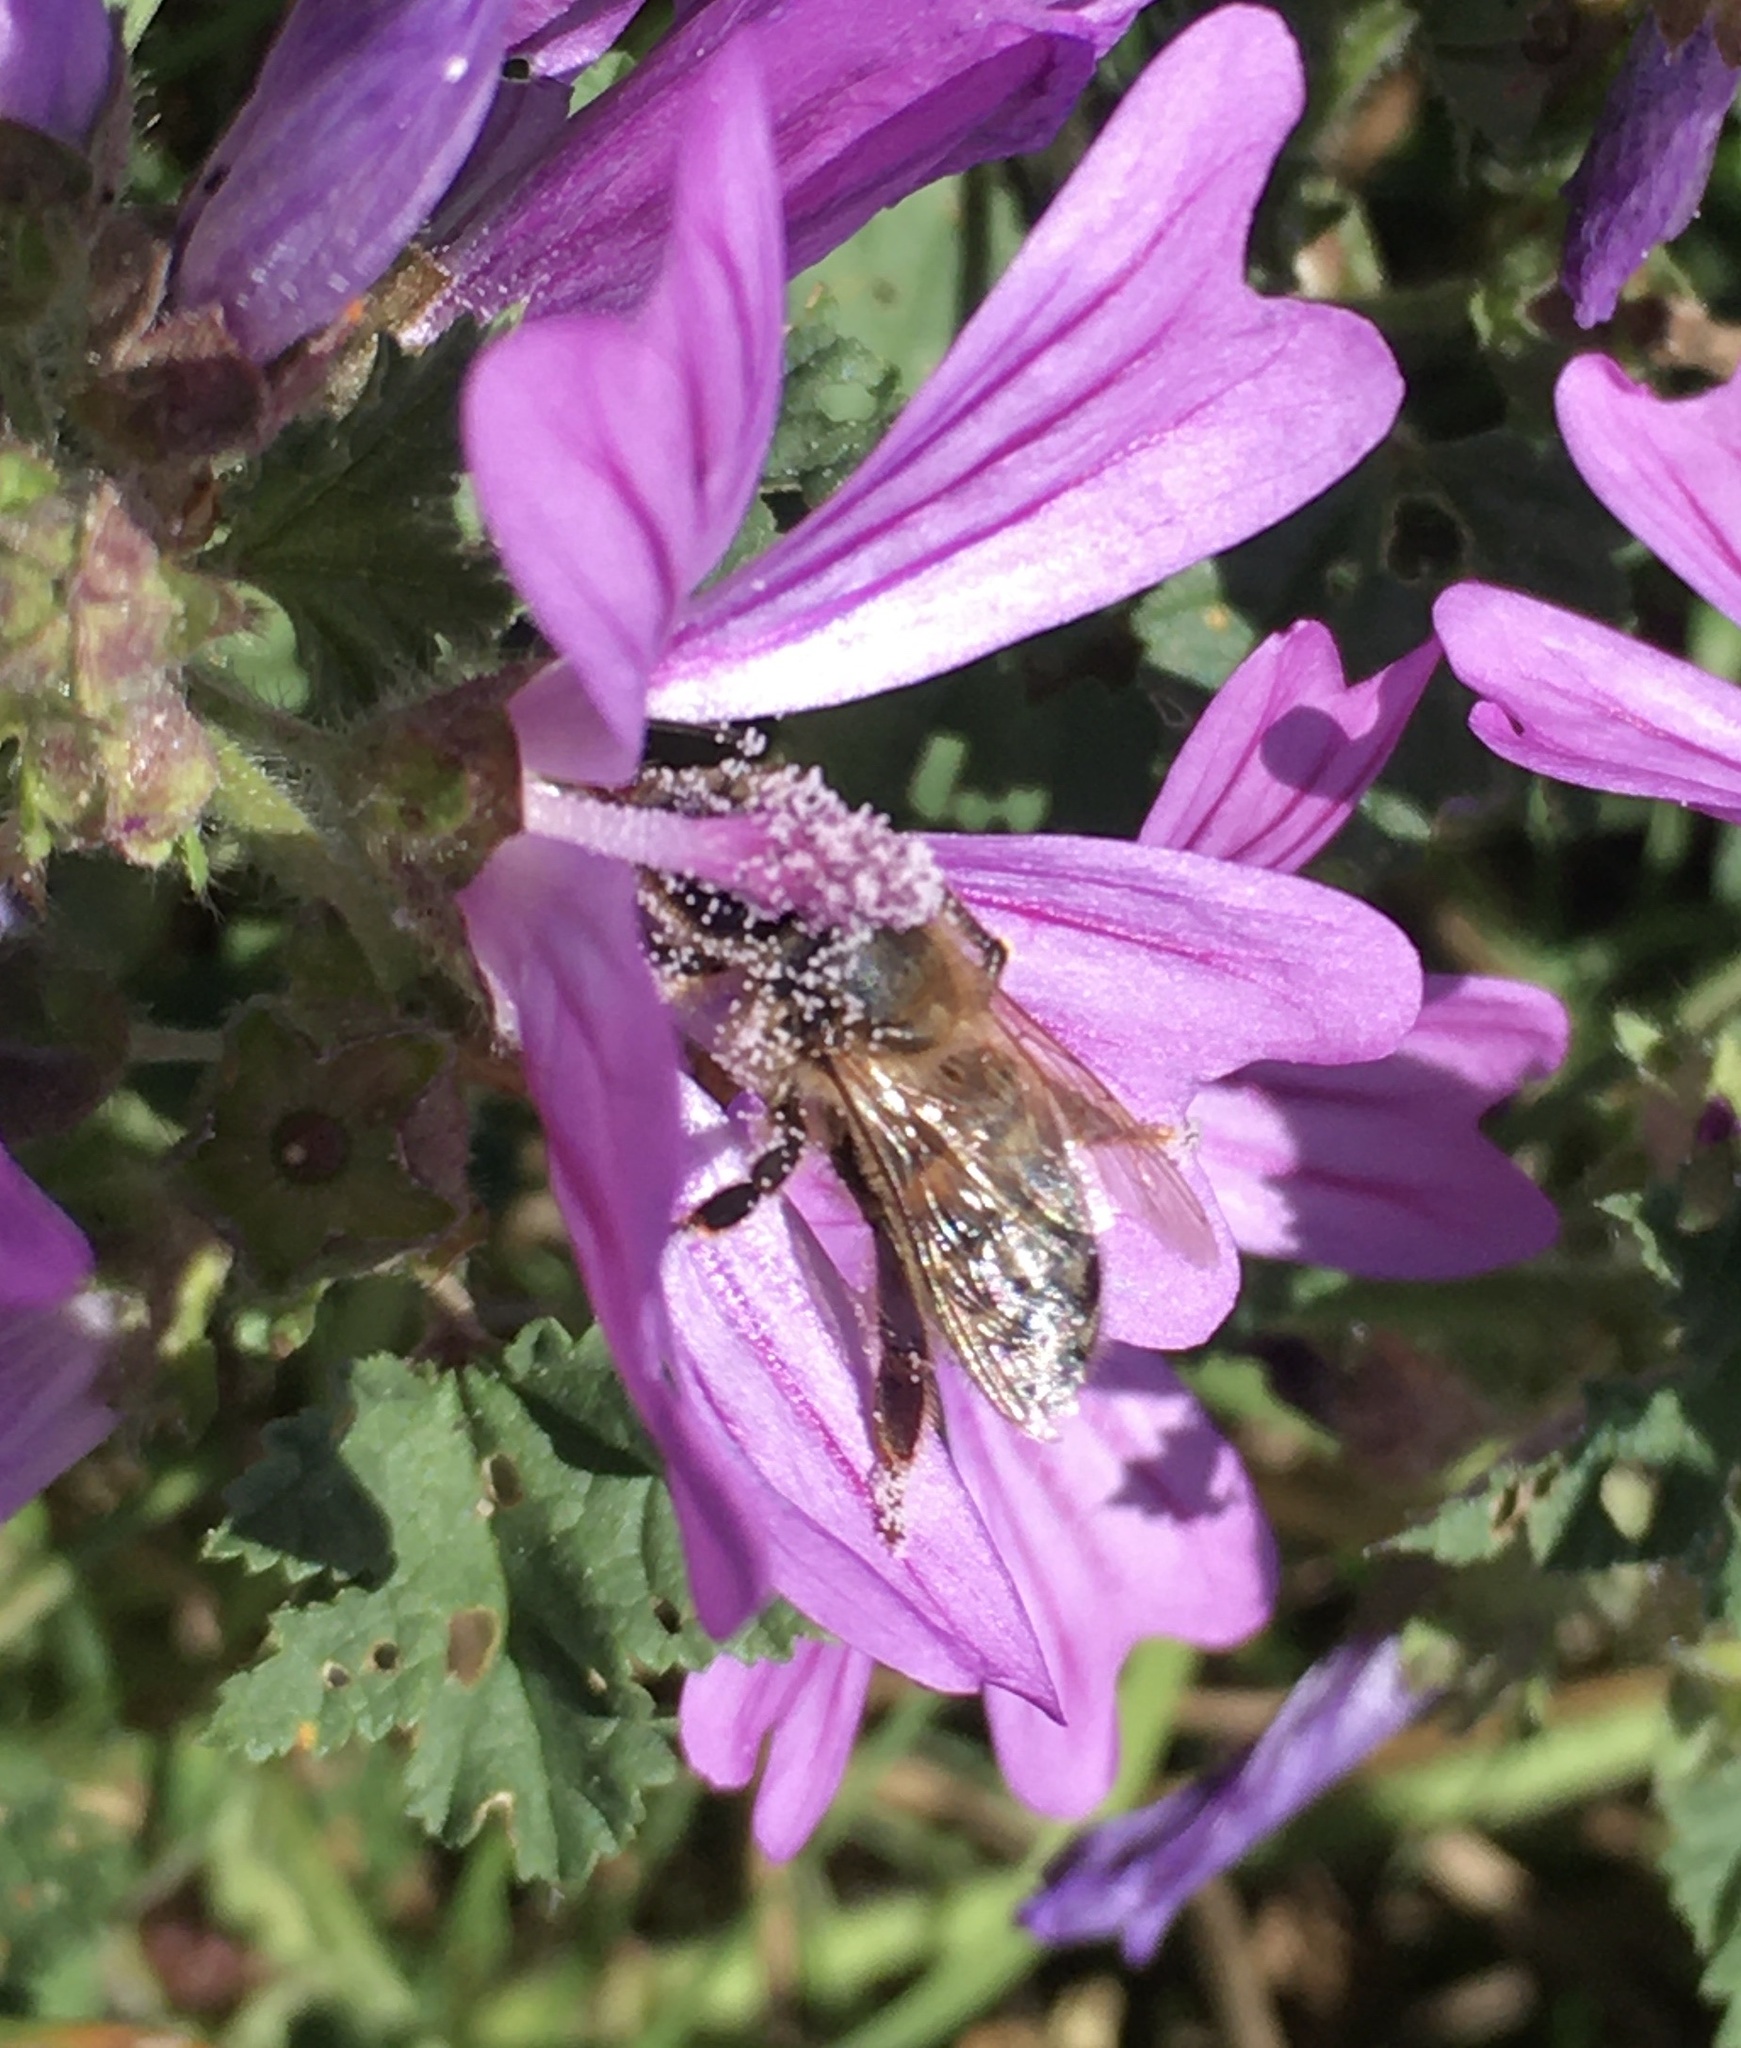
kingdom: Animalia
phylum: Arthropoda
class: Insecta
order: Hymenoptera
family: Apidae
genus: Apis
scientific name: Apis mellifera
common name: Honey bee
